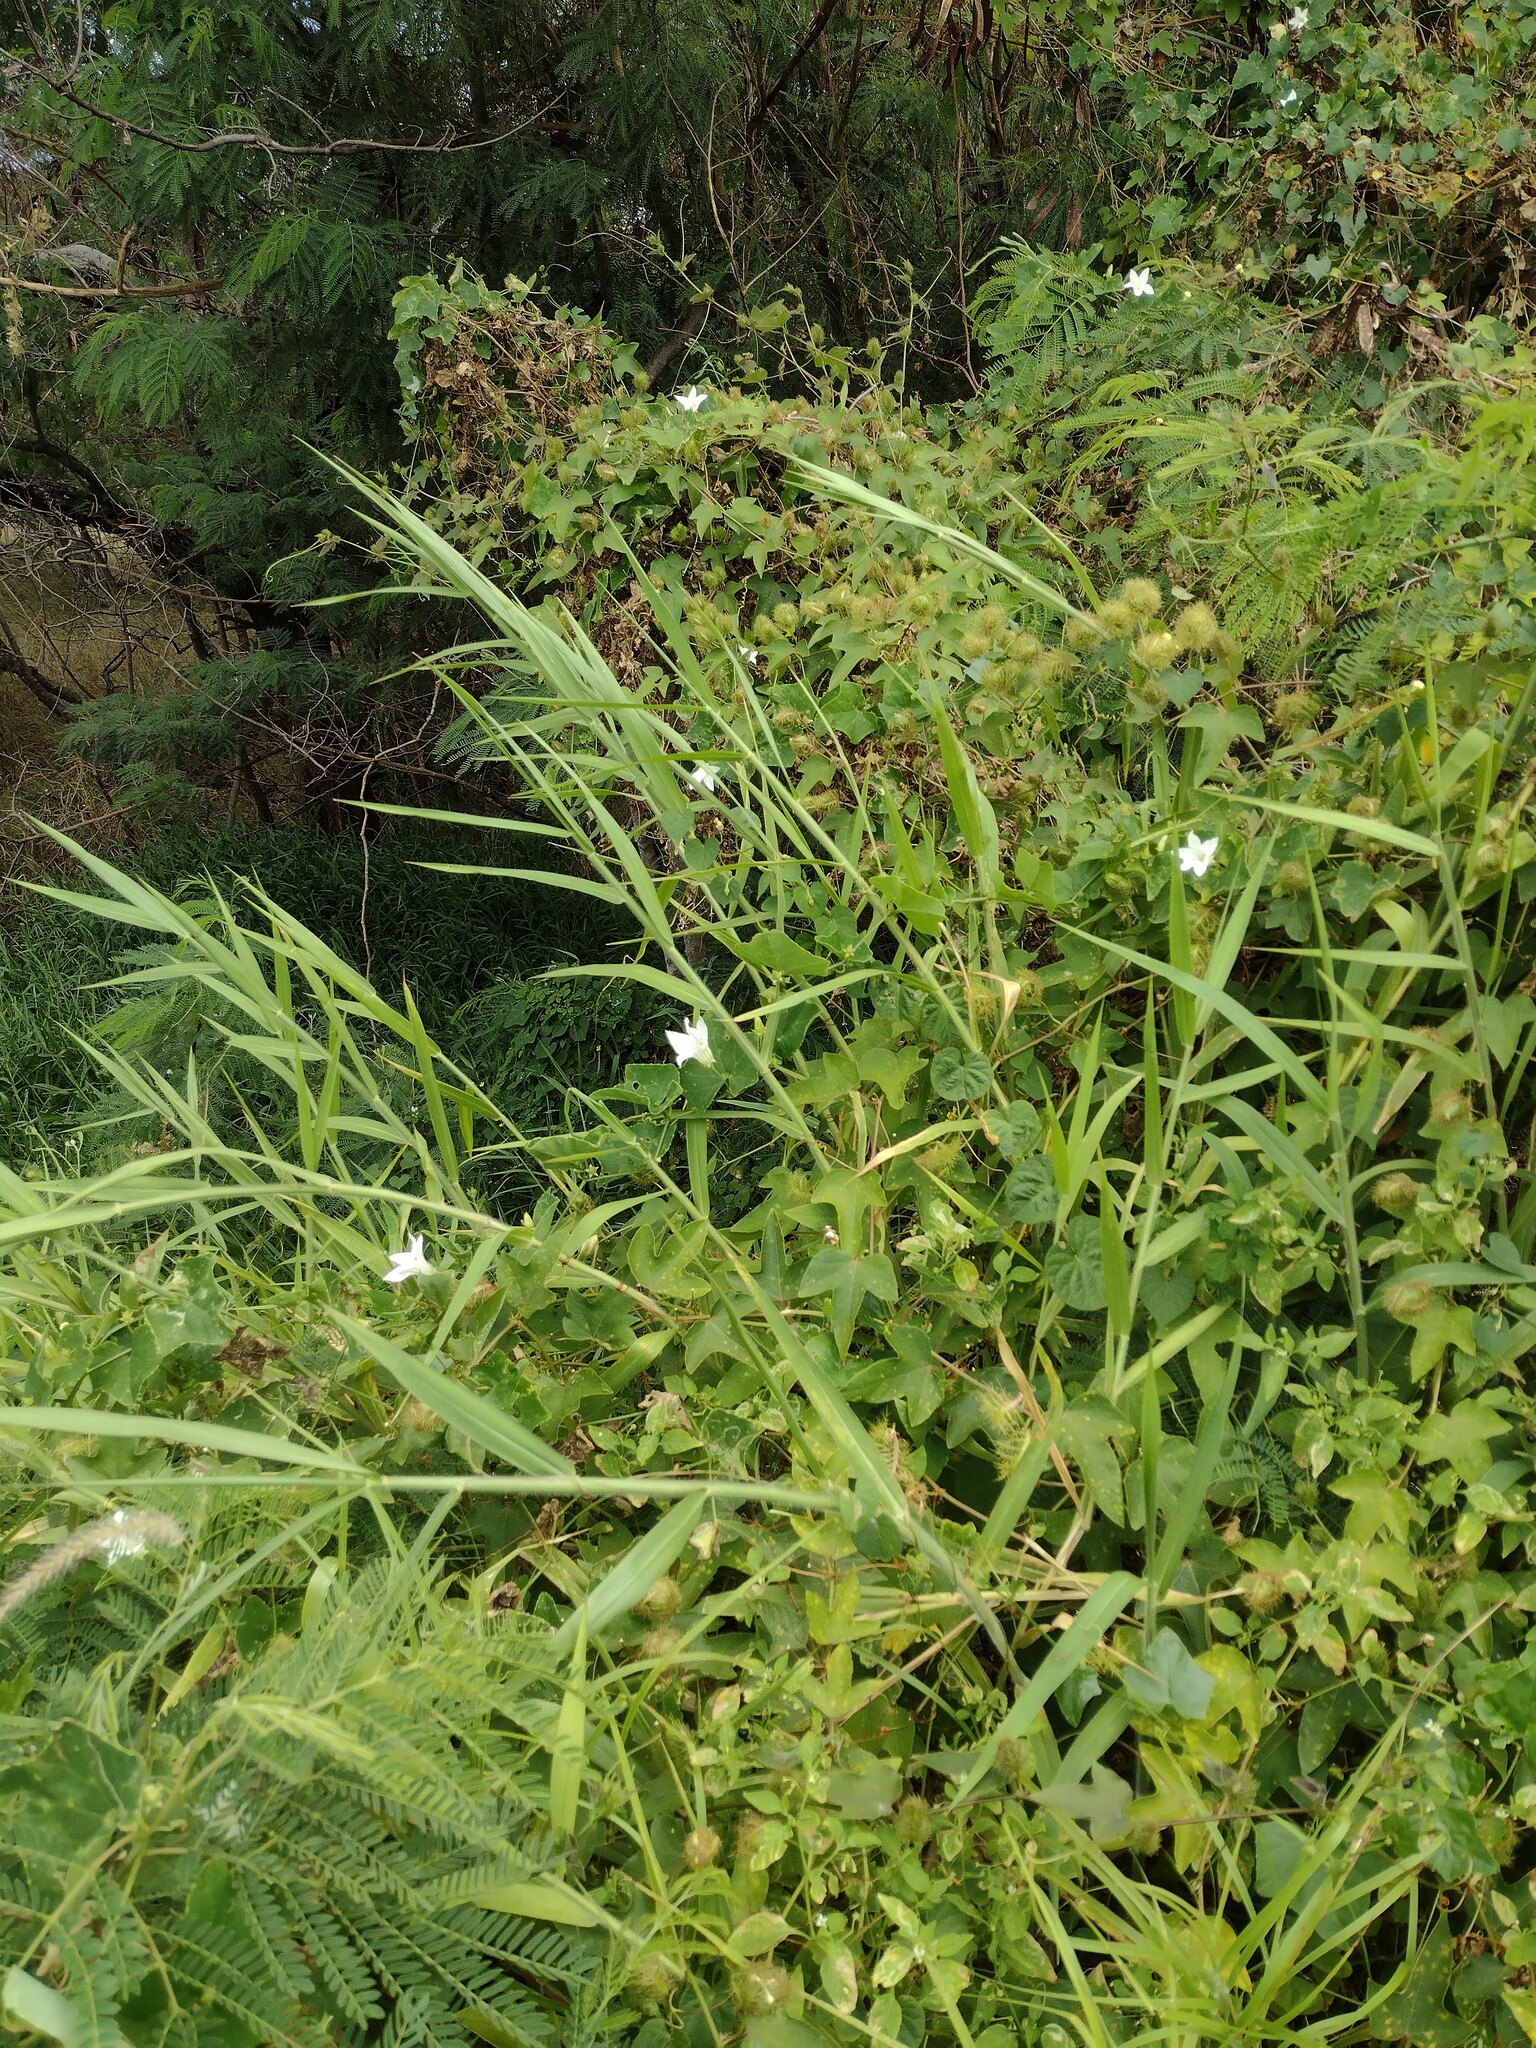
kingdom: Plantae
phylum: Tracheophyta
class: Liliopsida
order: Poales
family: Poaceae
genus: Urochloa
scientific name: Urochloa mutica
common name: Para grass
